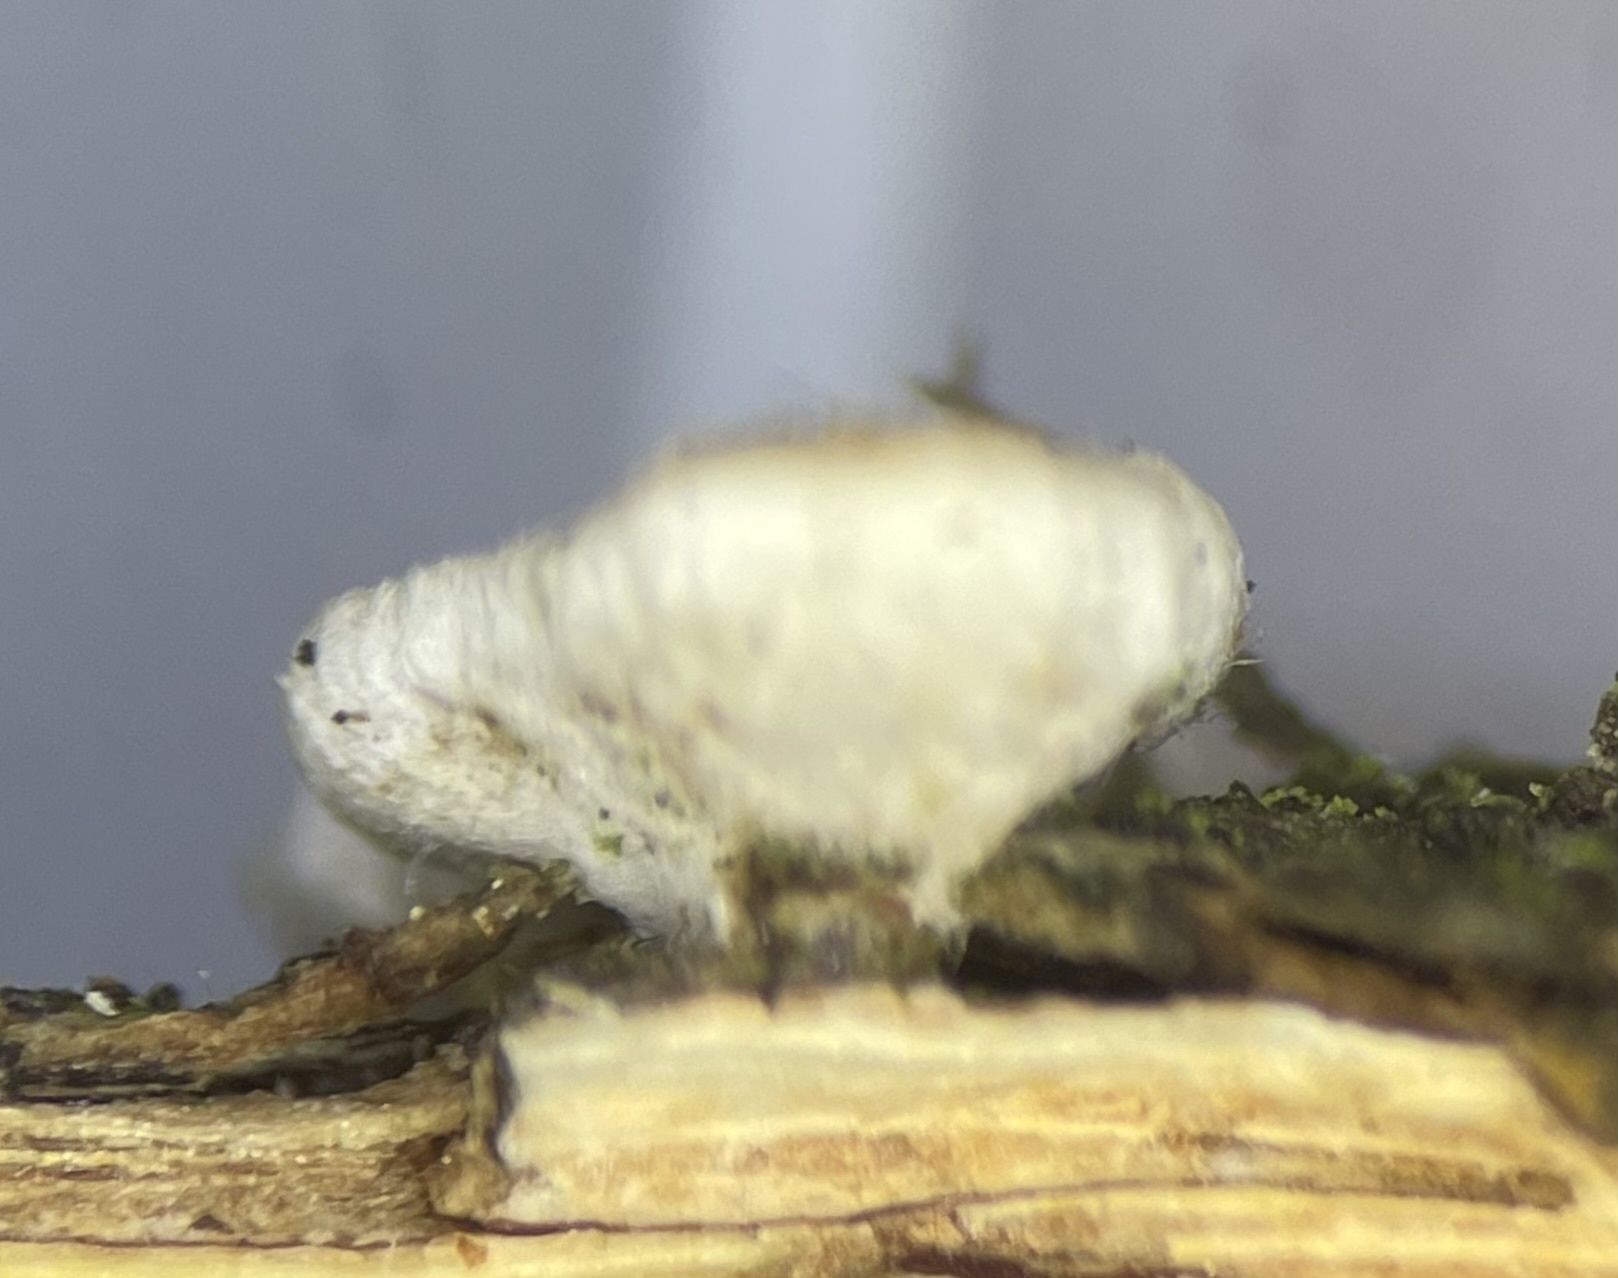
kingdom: Fungi
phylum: Basidiomycota
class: Agaricomycetes
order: Russulales
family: Stereaceae
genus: Acanthophysium
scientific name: Acanthophysium oakesii
